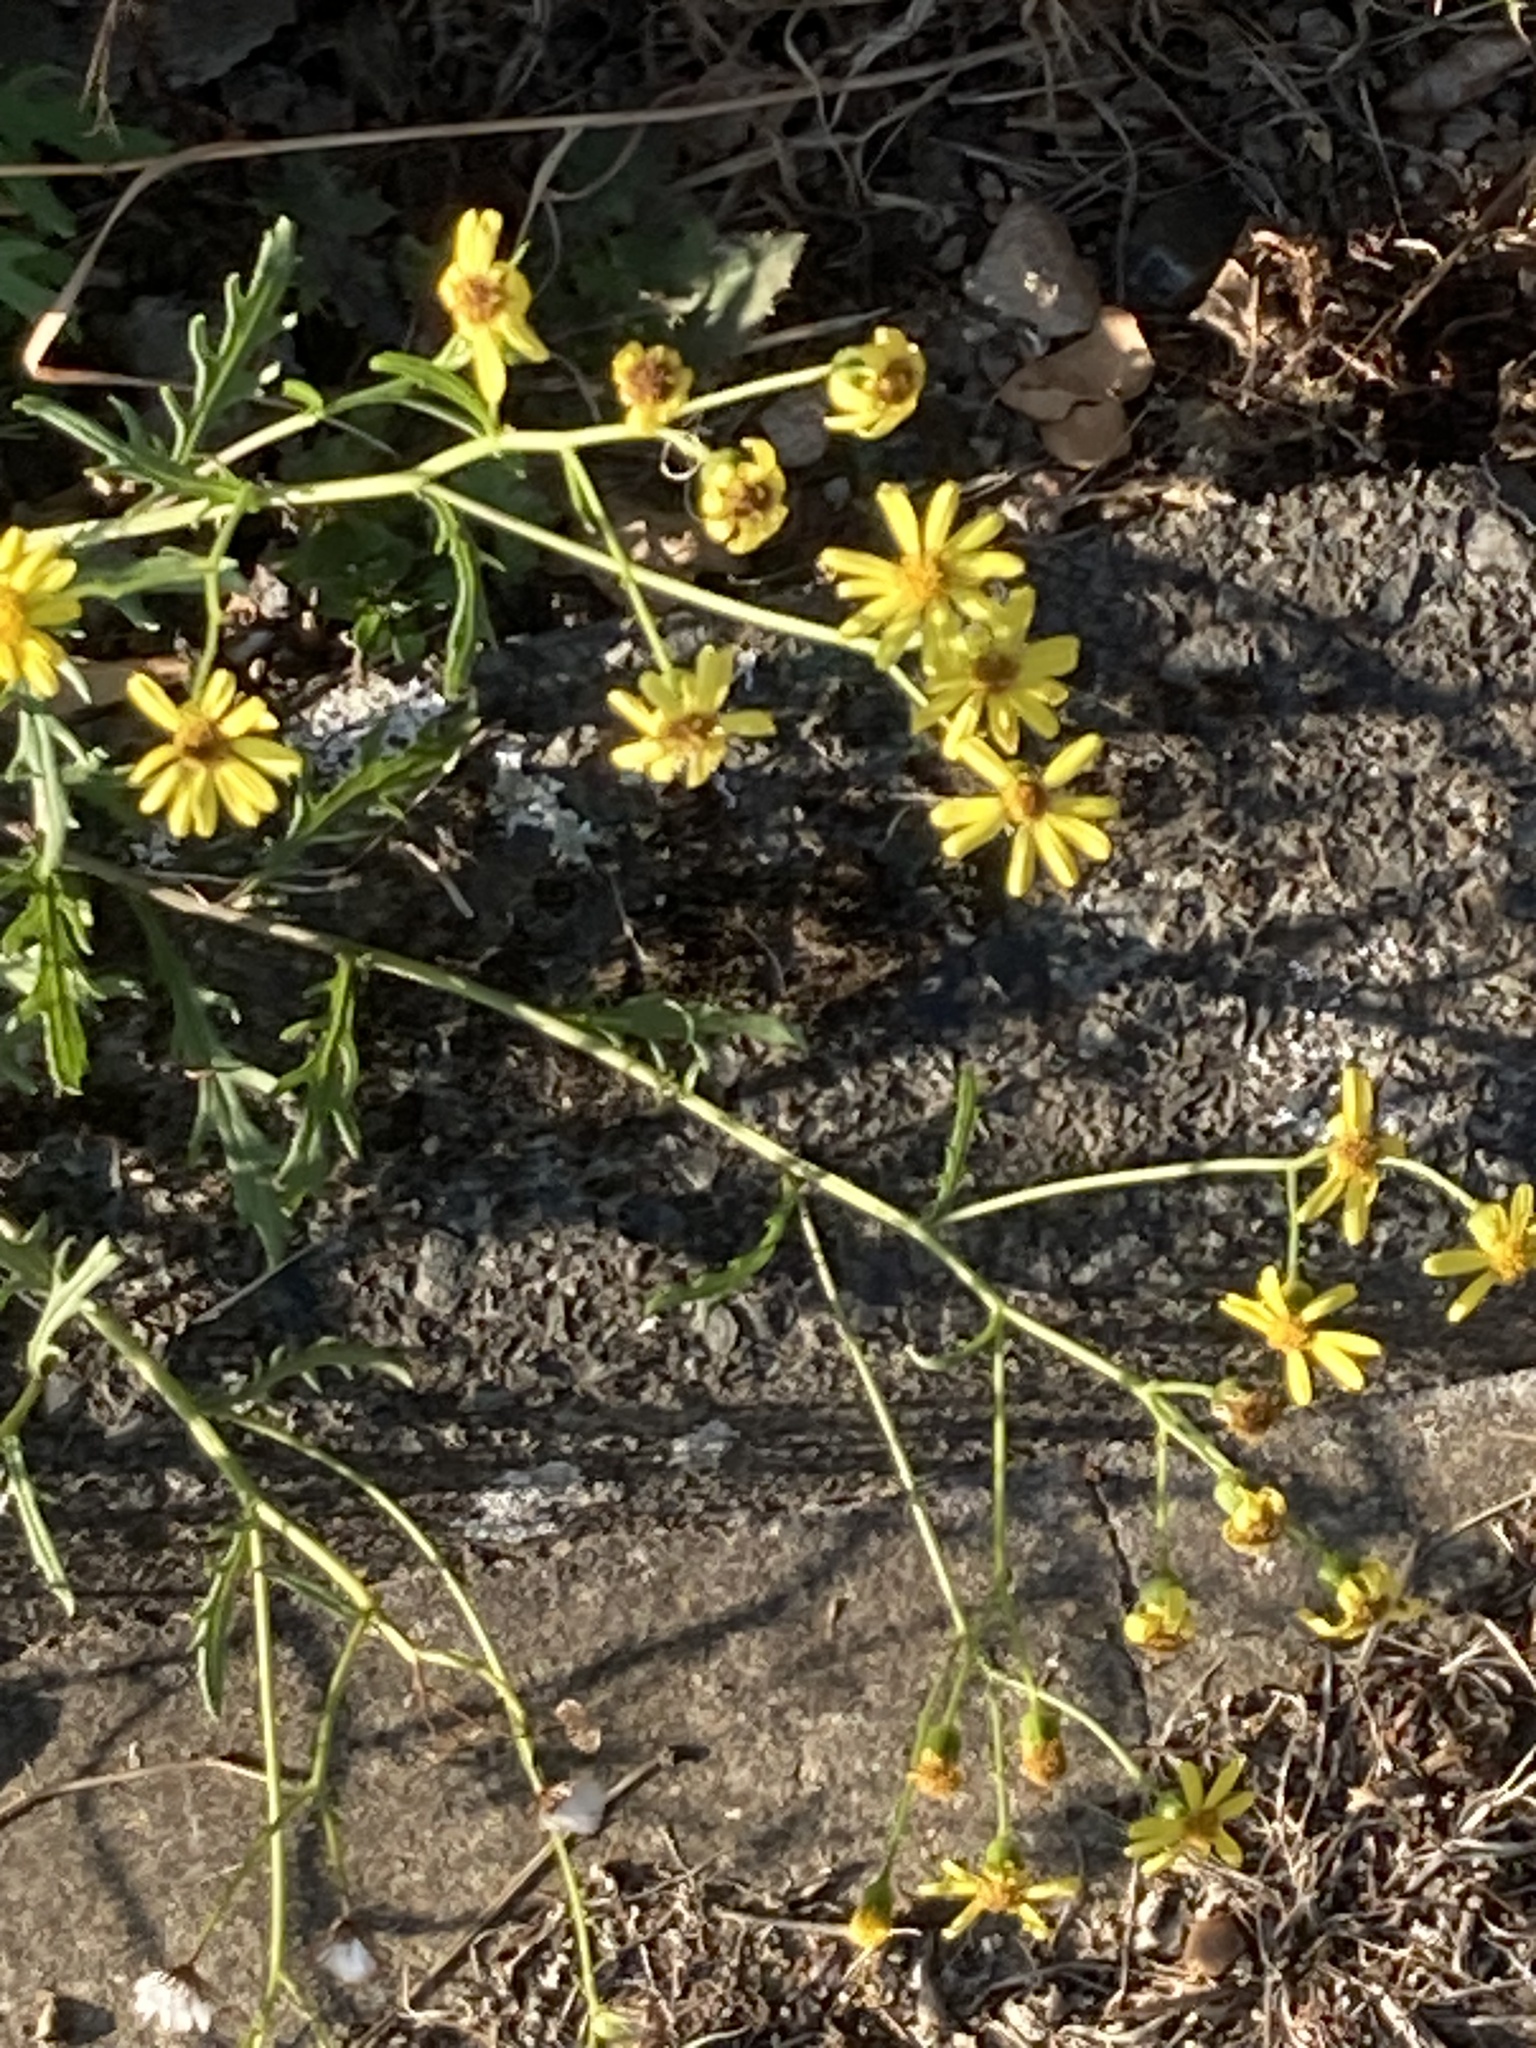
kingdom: Plantae
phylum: Tracheophyta
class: Magnoliopsida
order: Asterales
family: Asteraceae
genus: Senecio
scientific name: Senecio squalidus
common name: Oxford ragwort
